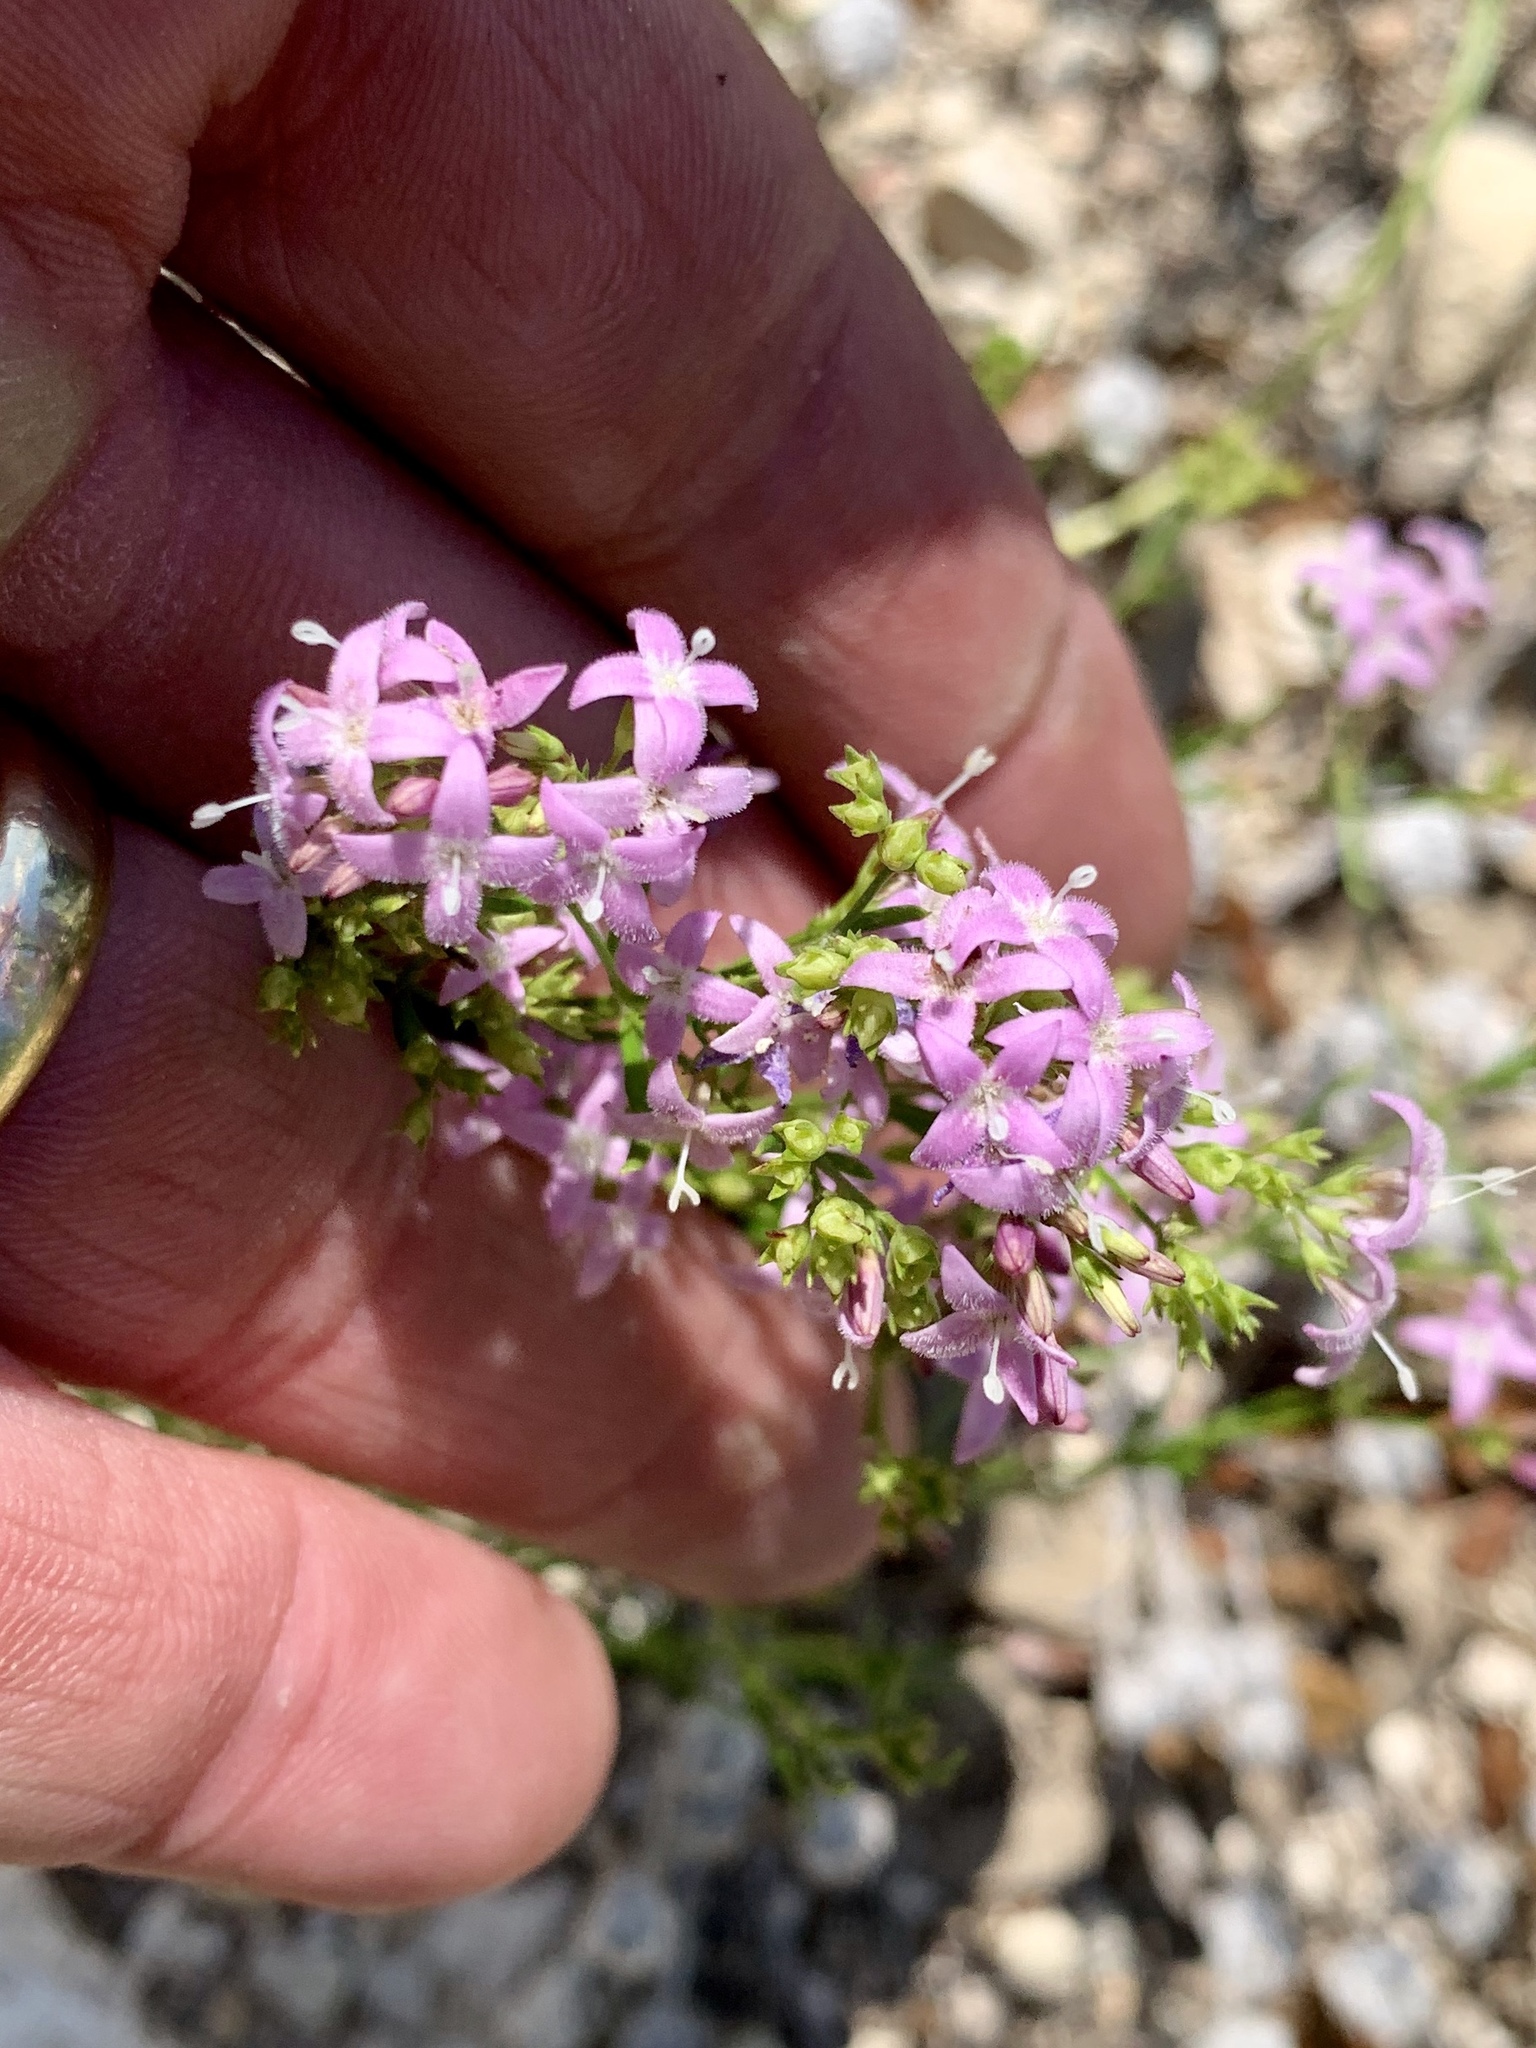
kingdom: Plantae
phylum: Tracheophyta
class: Magnoliopsida
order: Gentianales
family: Rubiaceae
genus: Stenaria
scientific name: Stenaria nigricans
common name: Diamondflowers
